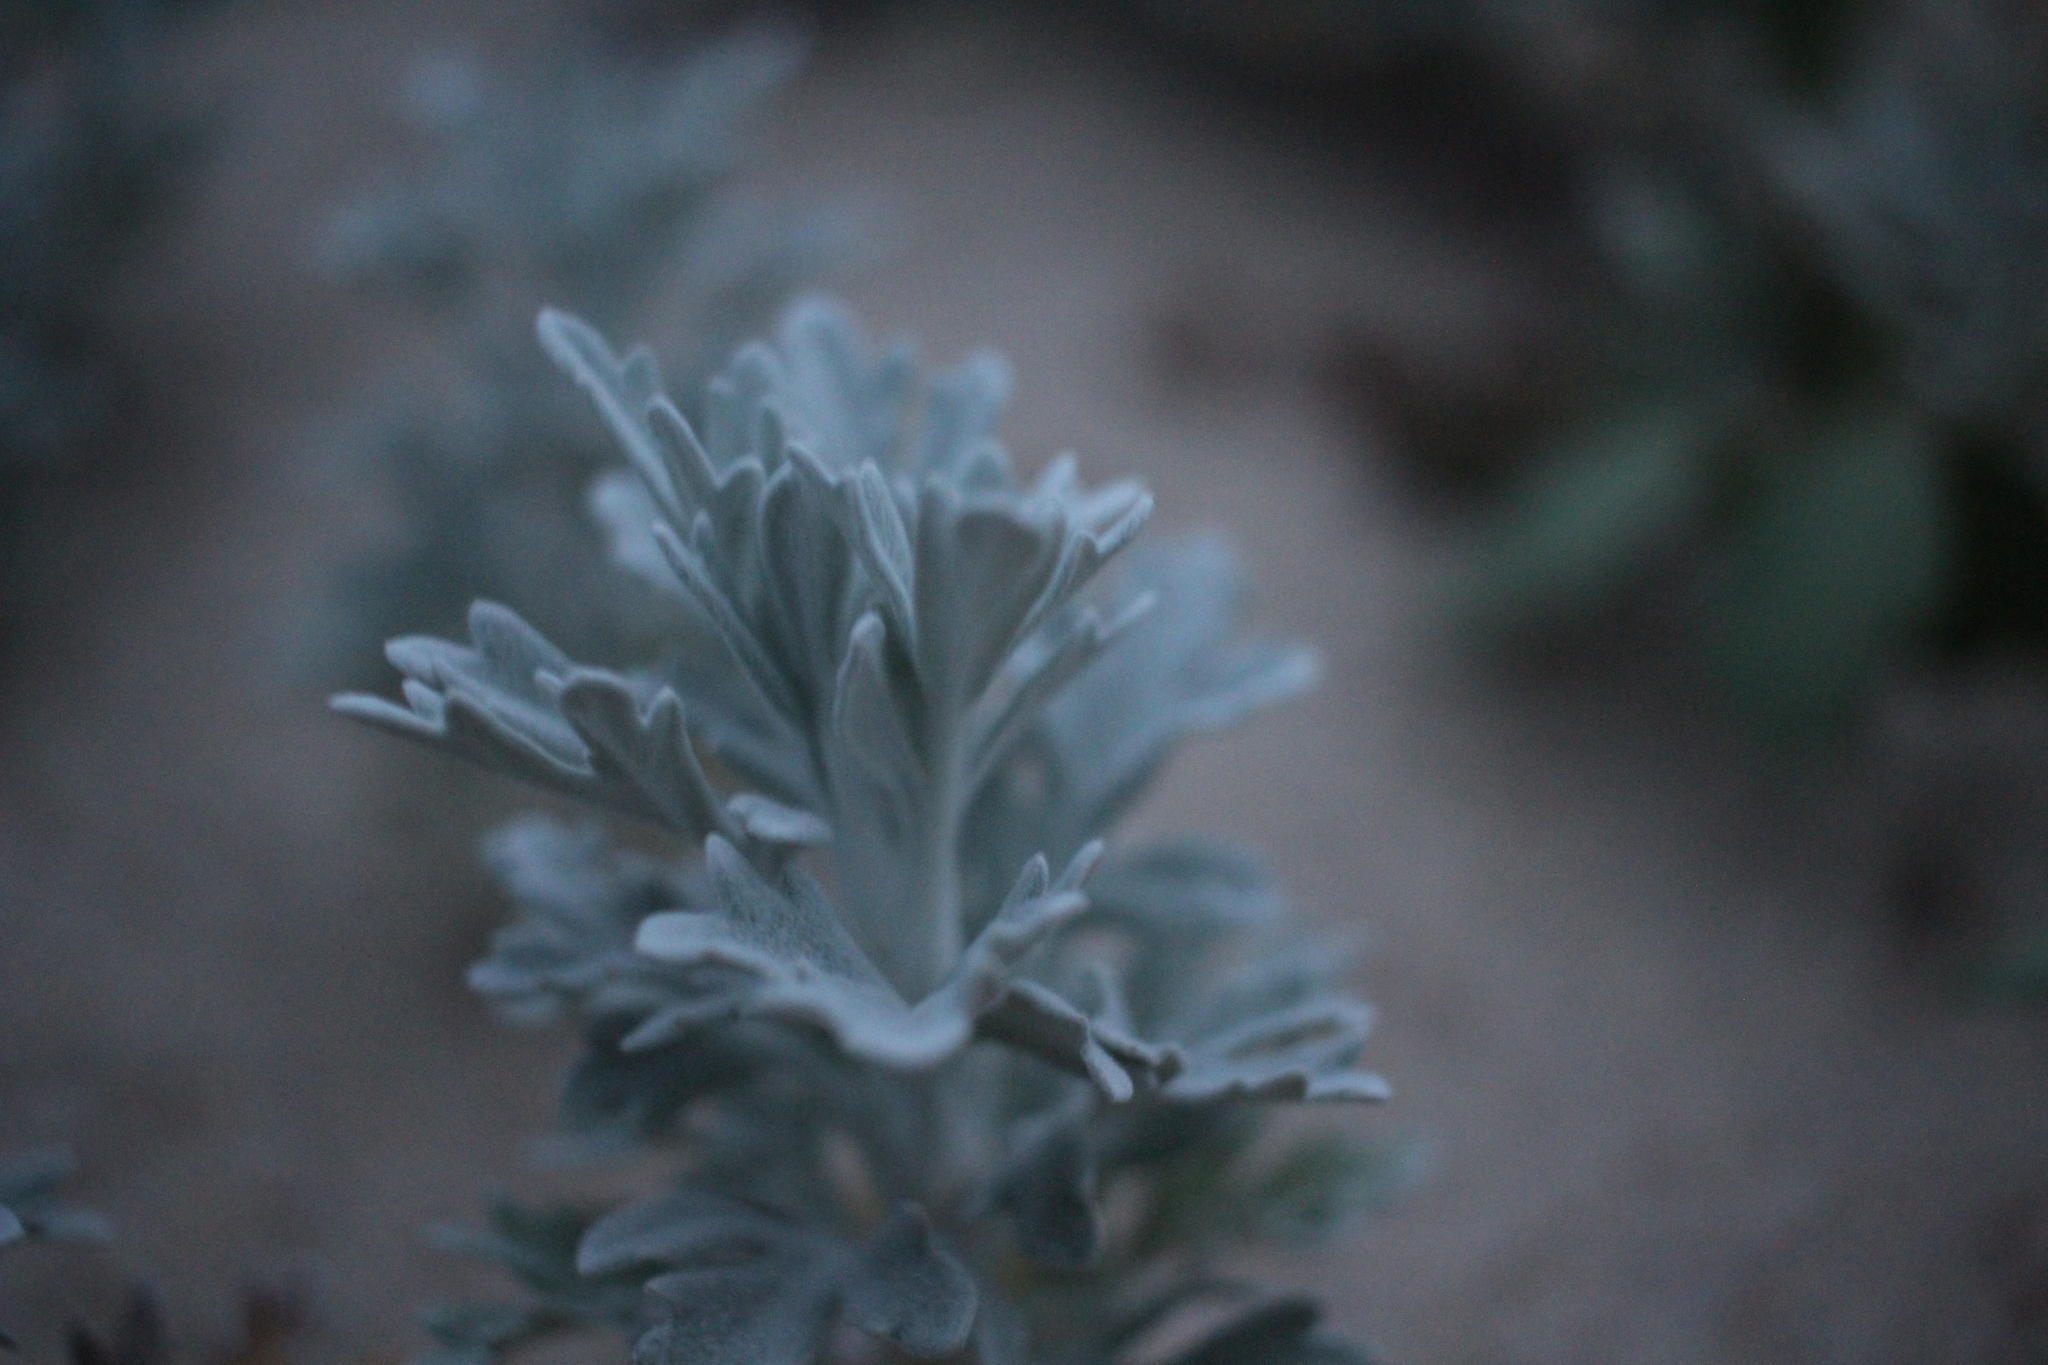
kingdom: Plantae
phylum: Tracheophyta
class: Magnoliopsida
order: Asterales
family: Asteraceae
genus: Artemisia
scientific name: Artemisia stelleriana
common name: Beach wormwood
